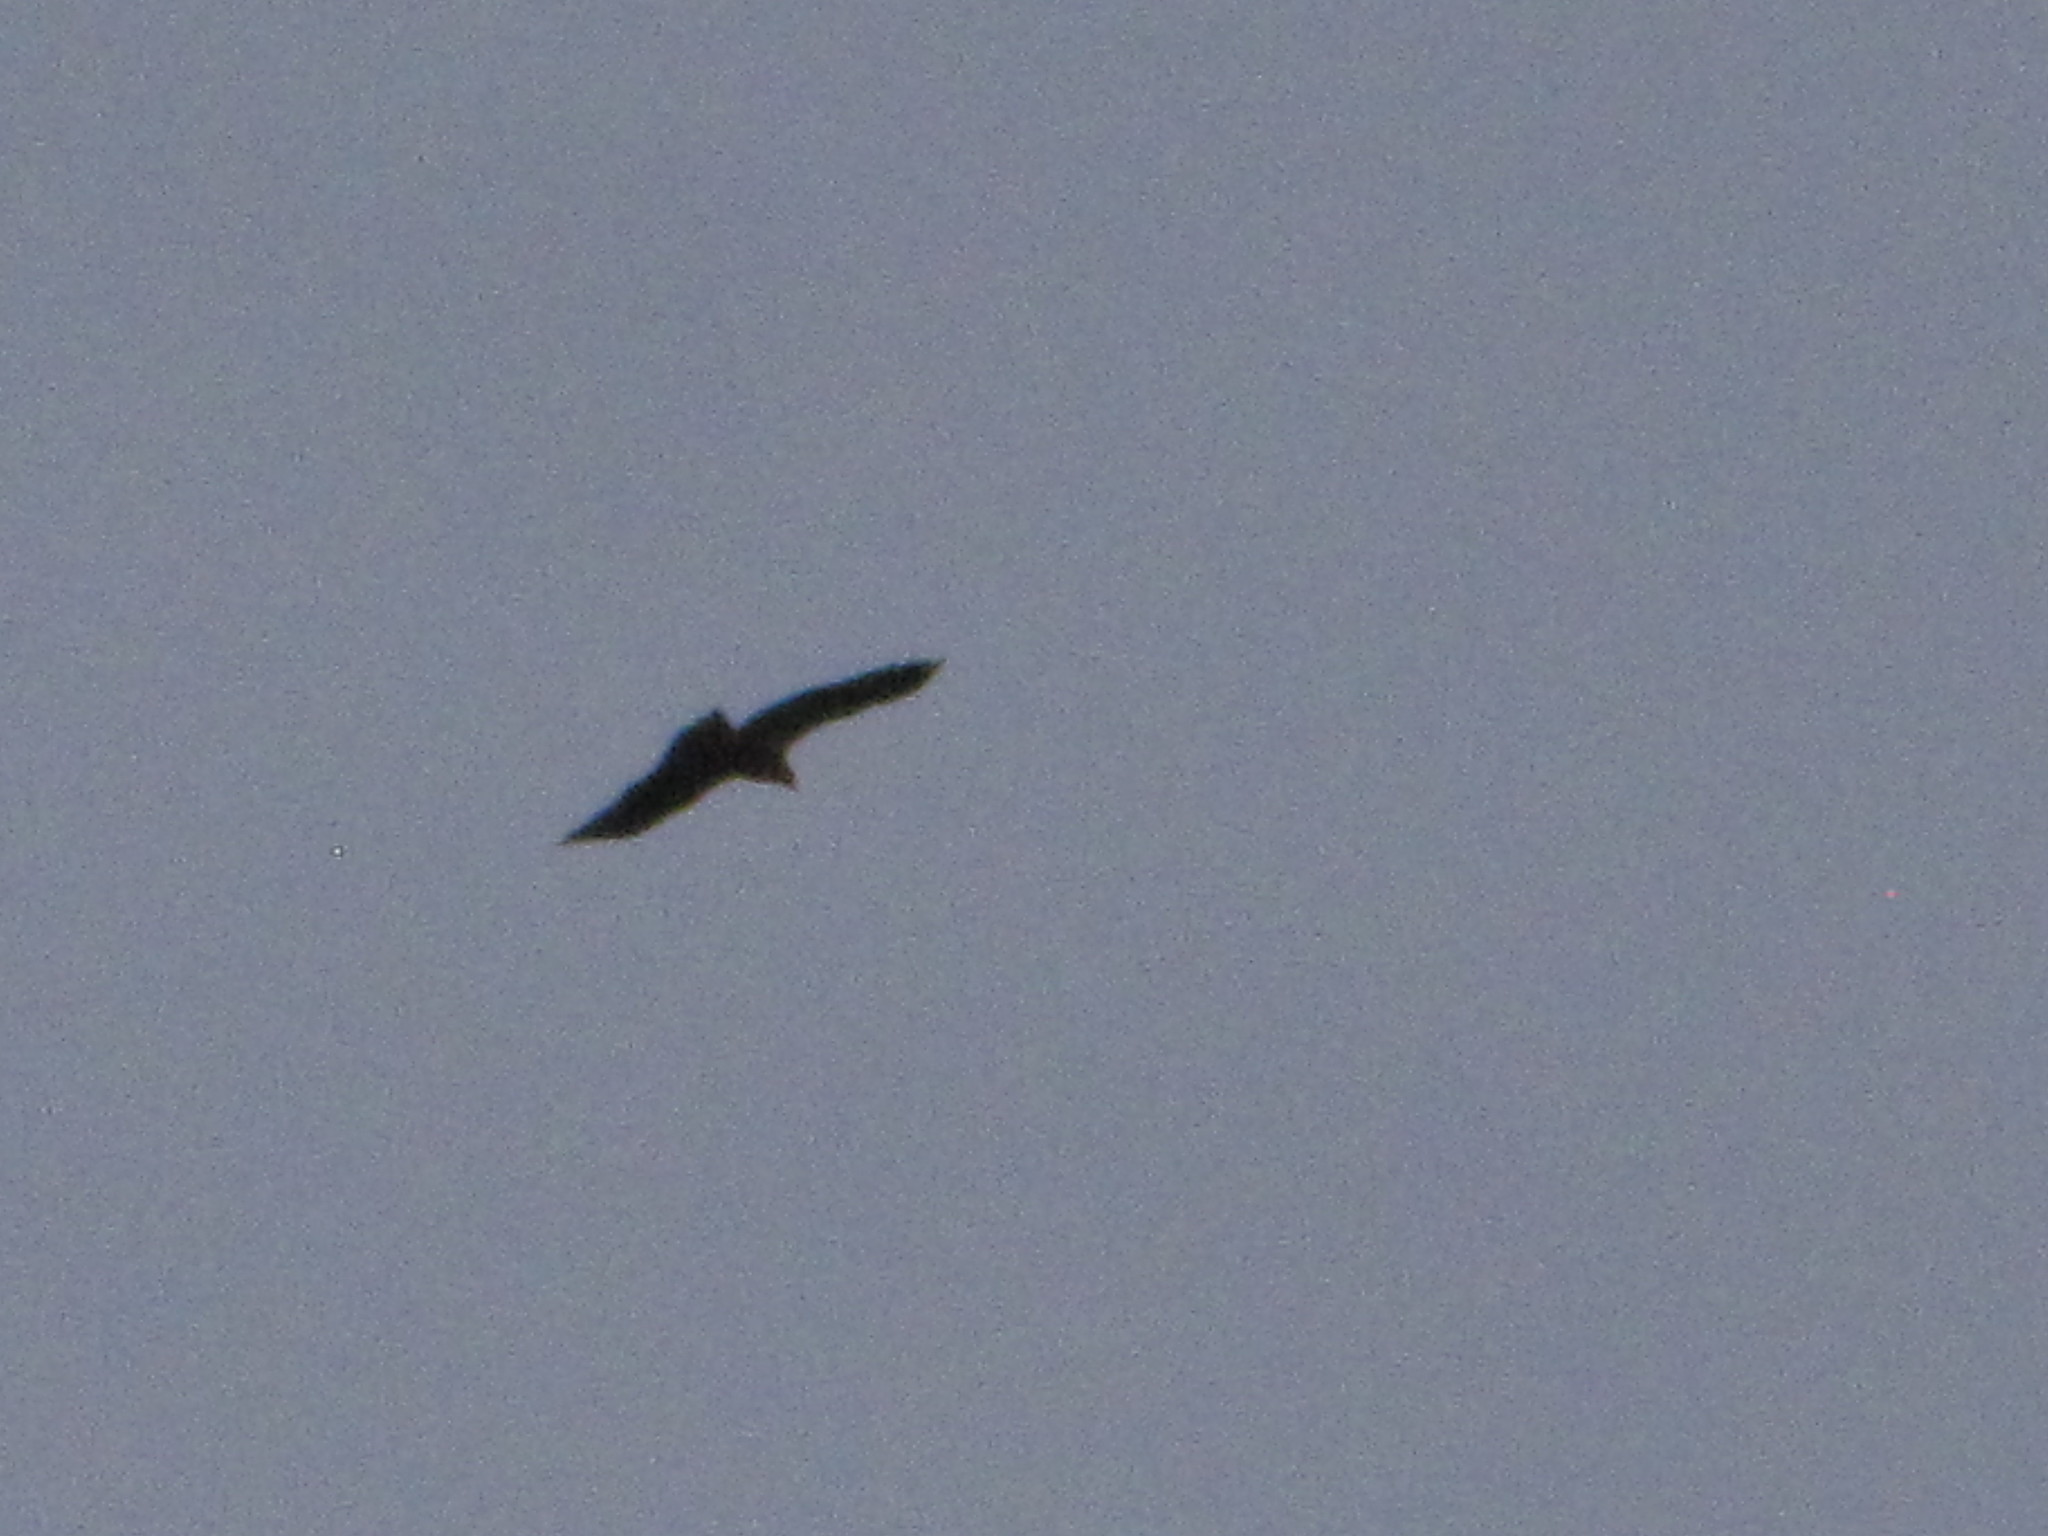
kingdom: Animalia
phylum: Chordata
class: Aves
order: Accipitriformes
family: Accipitridae
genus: Haliaeetus
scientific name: Haliaeetus leucocephalus
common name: Bald eagle
